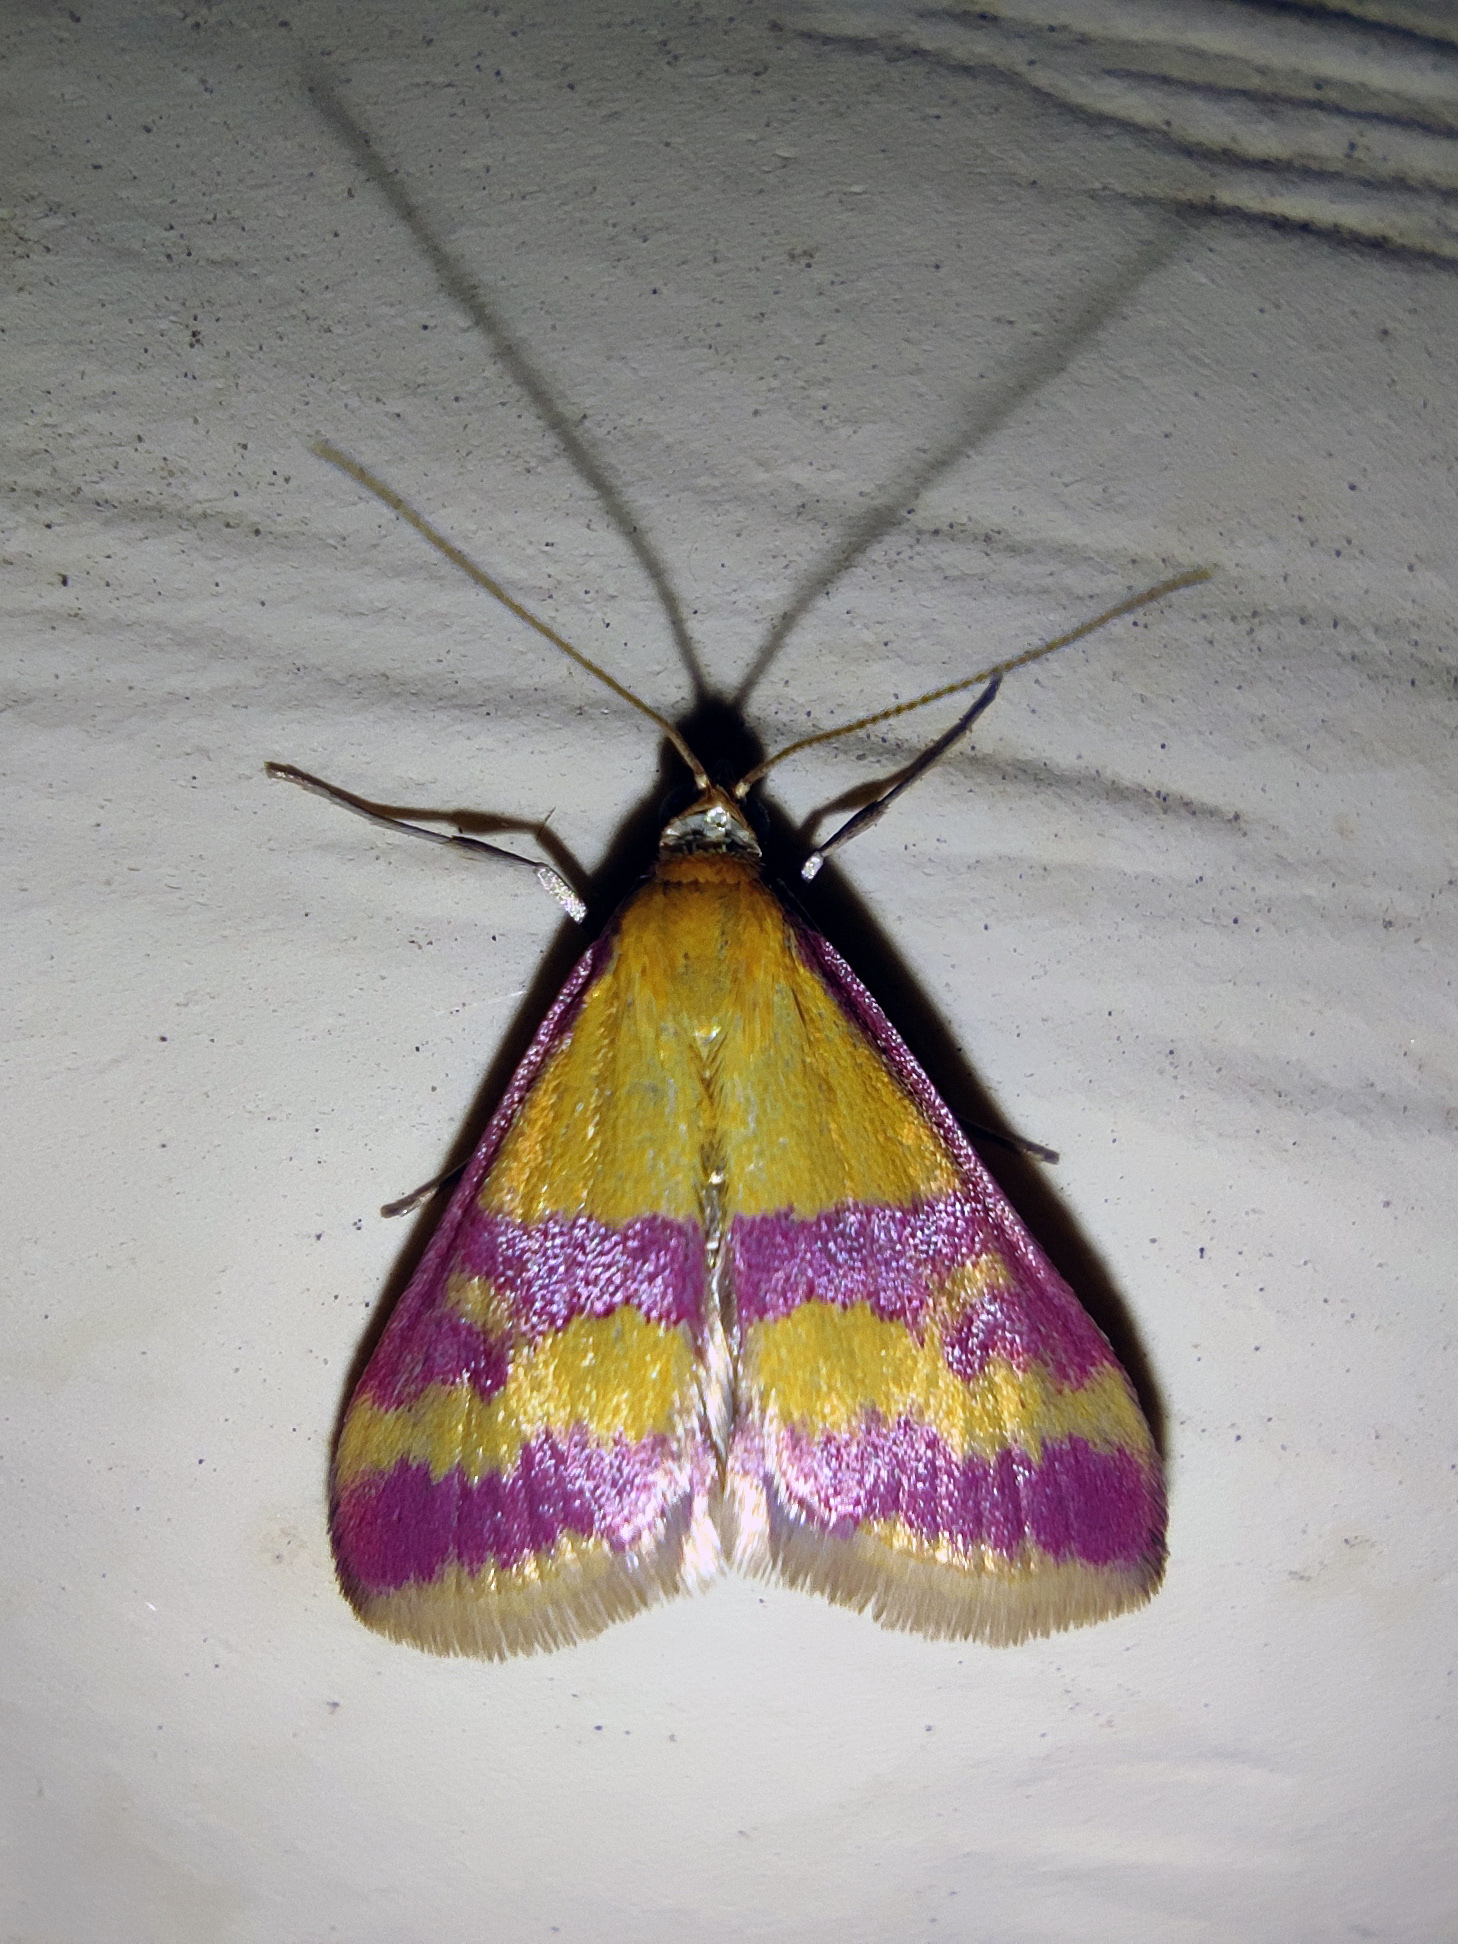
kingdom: Animalia
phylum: Arthropoda
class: Insecta
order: Lepidoptera
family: Crambidae
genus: Pyrausta
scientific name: Pyrausta sanguinalis
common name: Scarce crimson and gold
